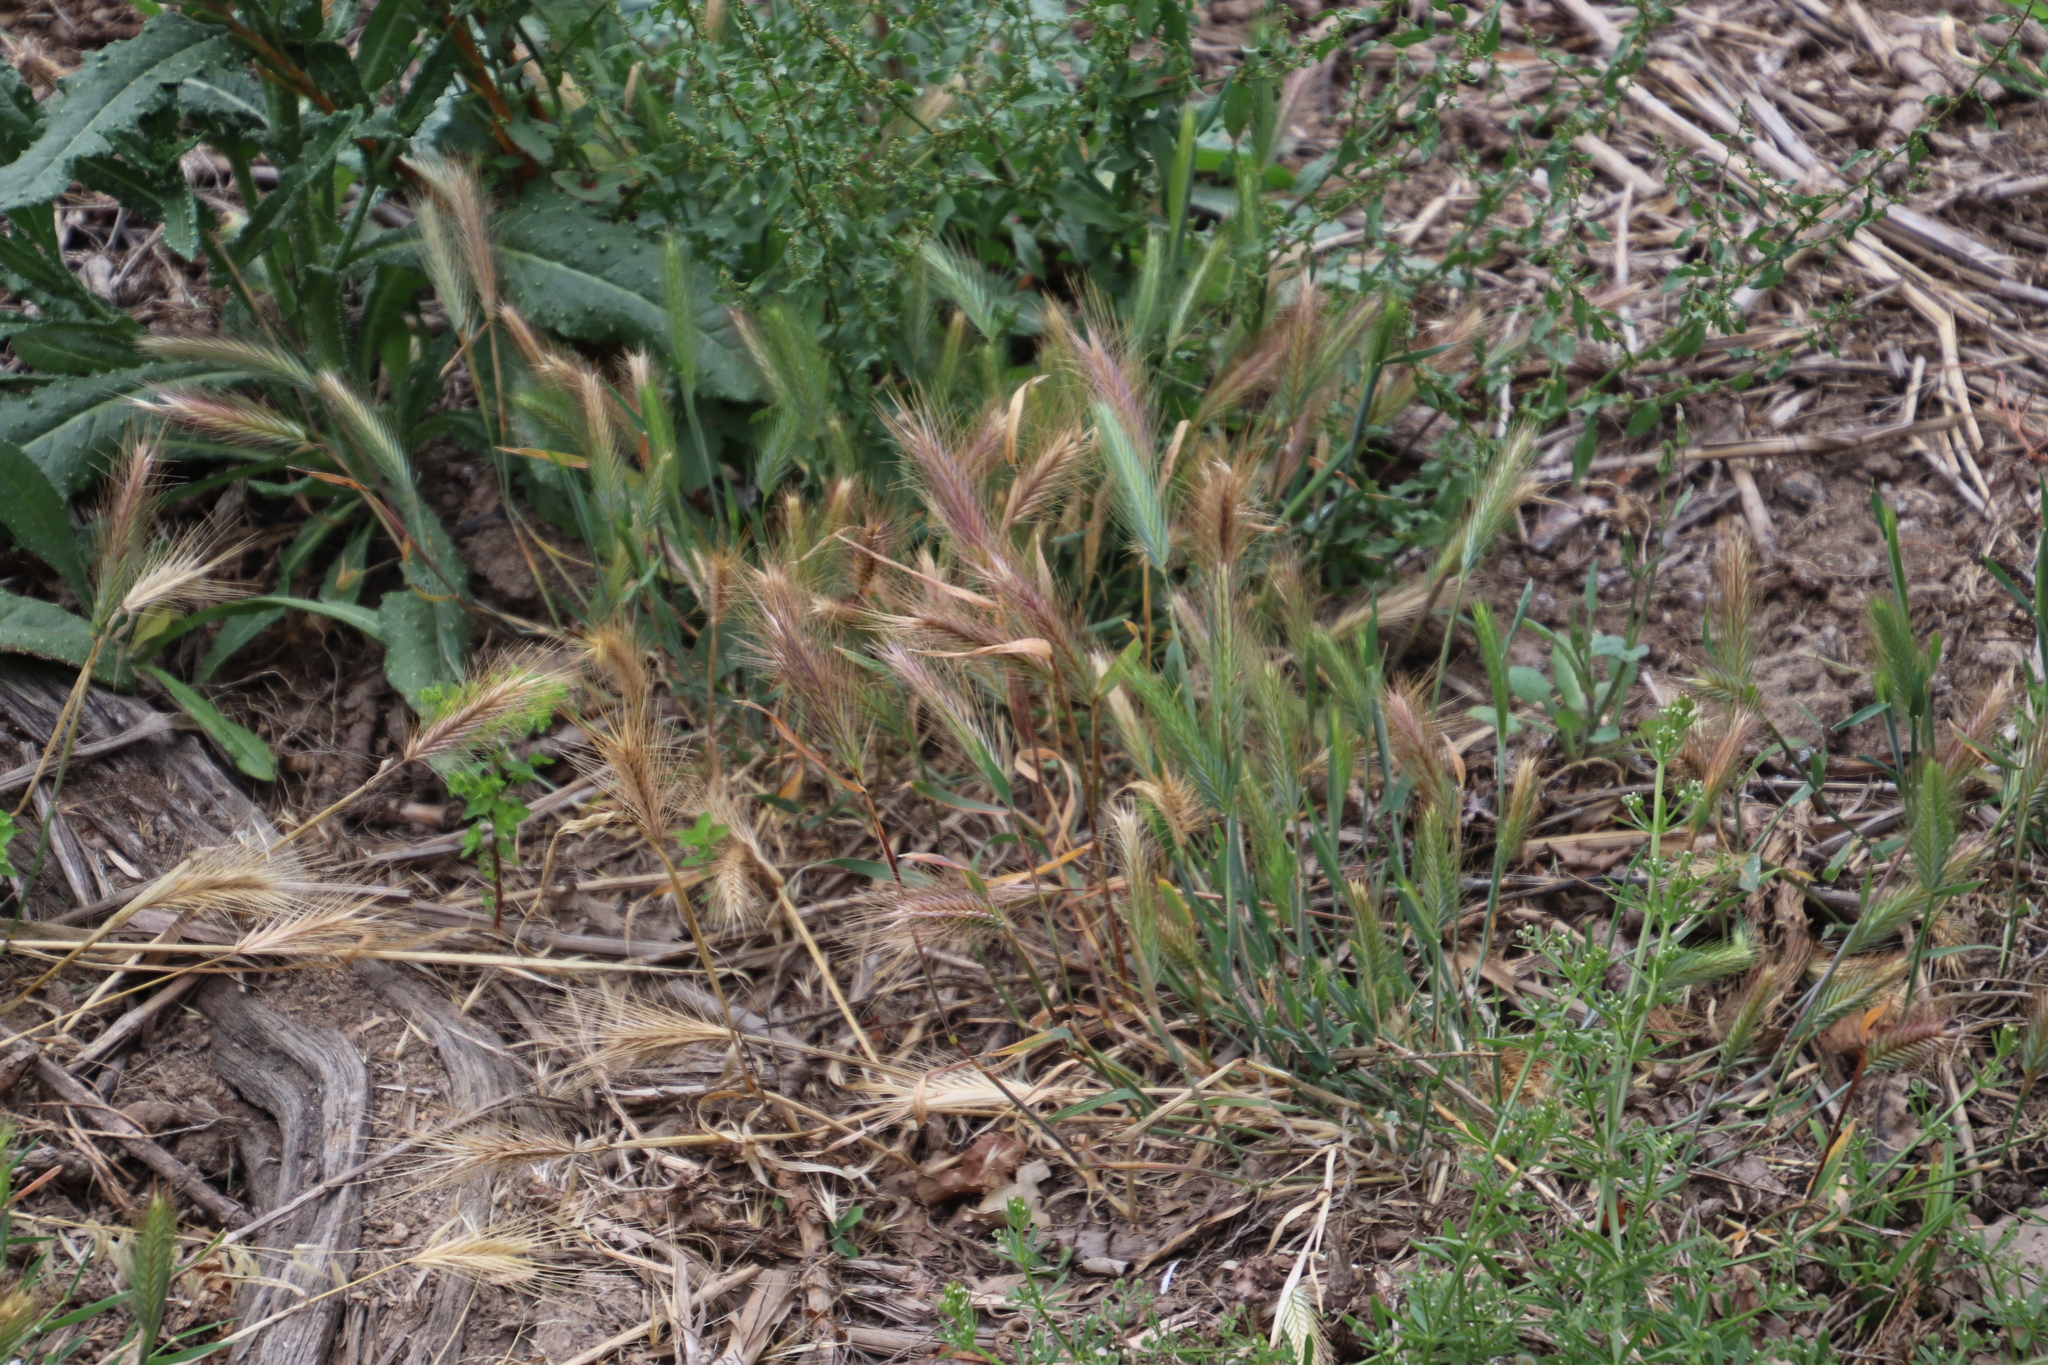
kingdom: Plantae
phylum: Tracheophyta
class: Liliopsida
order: Poales
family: Poaceae
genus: Hordeum
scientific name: Hordeum murinum
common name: Wall barley
